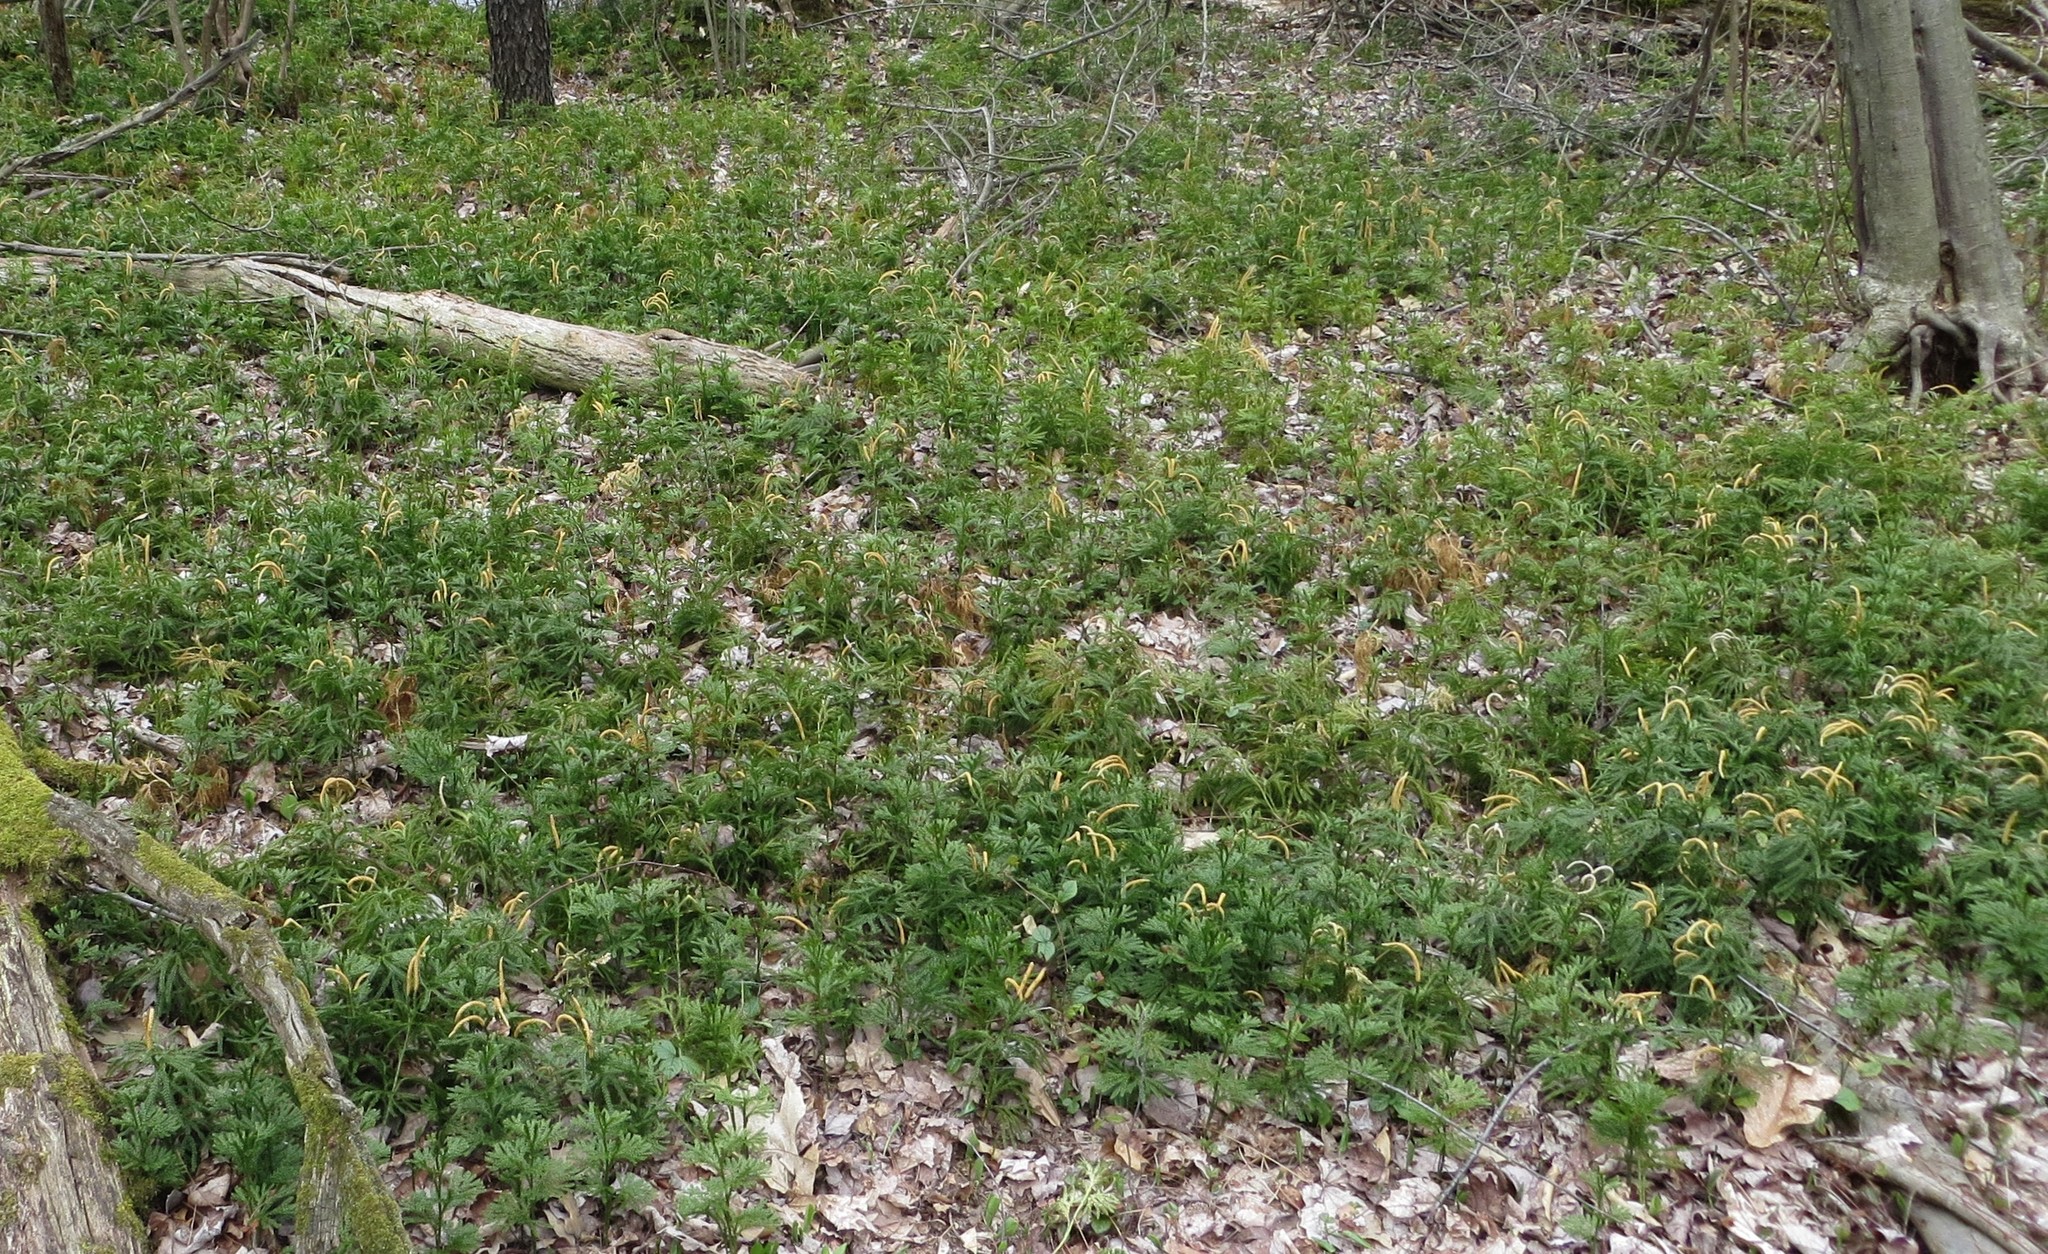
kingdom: Plantae
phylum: Tracheophyta
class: Lycopodiopsida
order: Lycopodiales
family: Lycopodiaceae
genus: Dendrolycopodium
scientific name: Dendrolycopodium obscurum
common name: Common ground-pine
